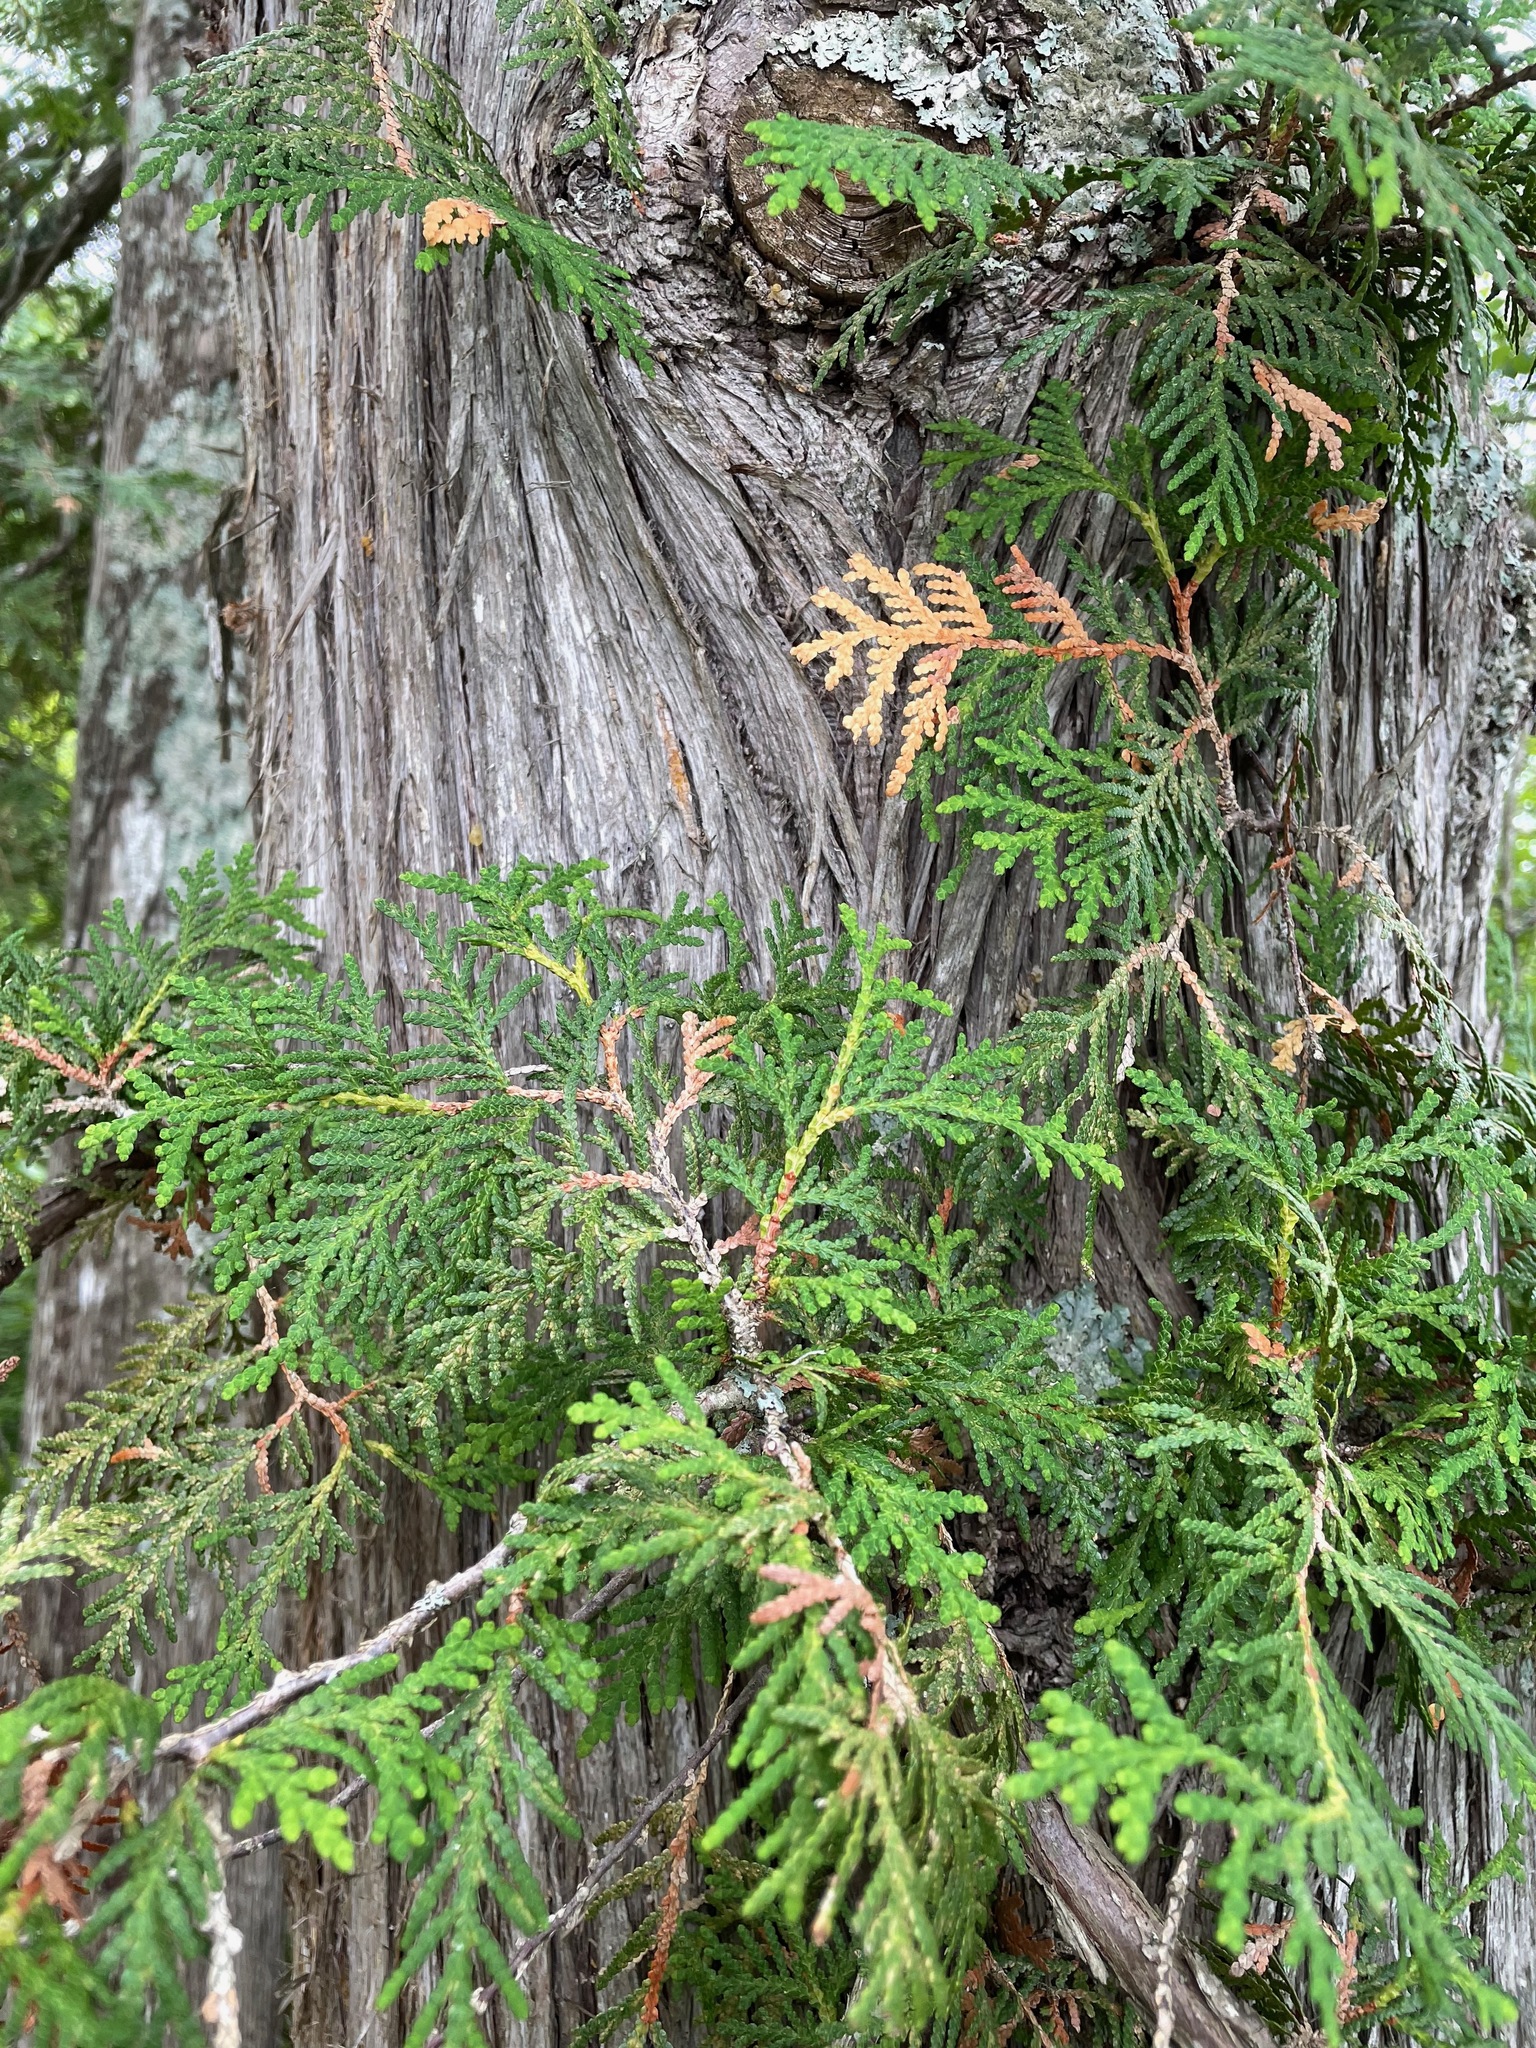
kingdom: Plantae
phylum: Tracheophyta
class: Pinopsida
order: Pinales
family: Cupressaceae
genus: Thuja
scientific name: Thuja occidentalis
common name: Northern white-cedar
